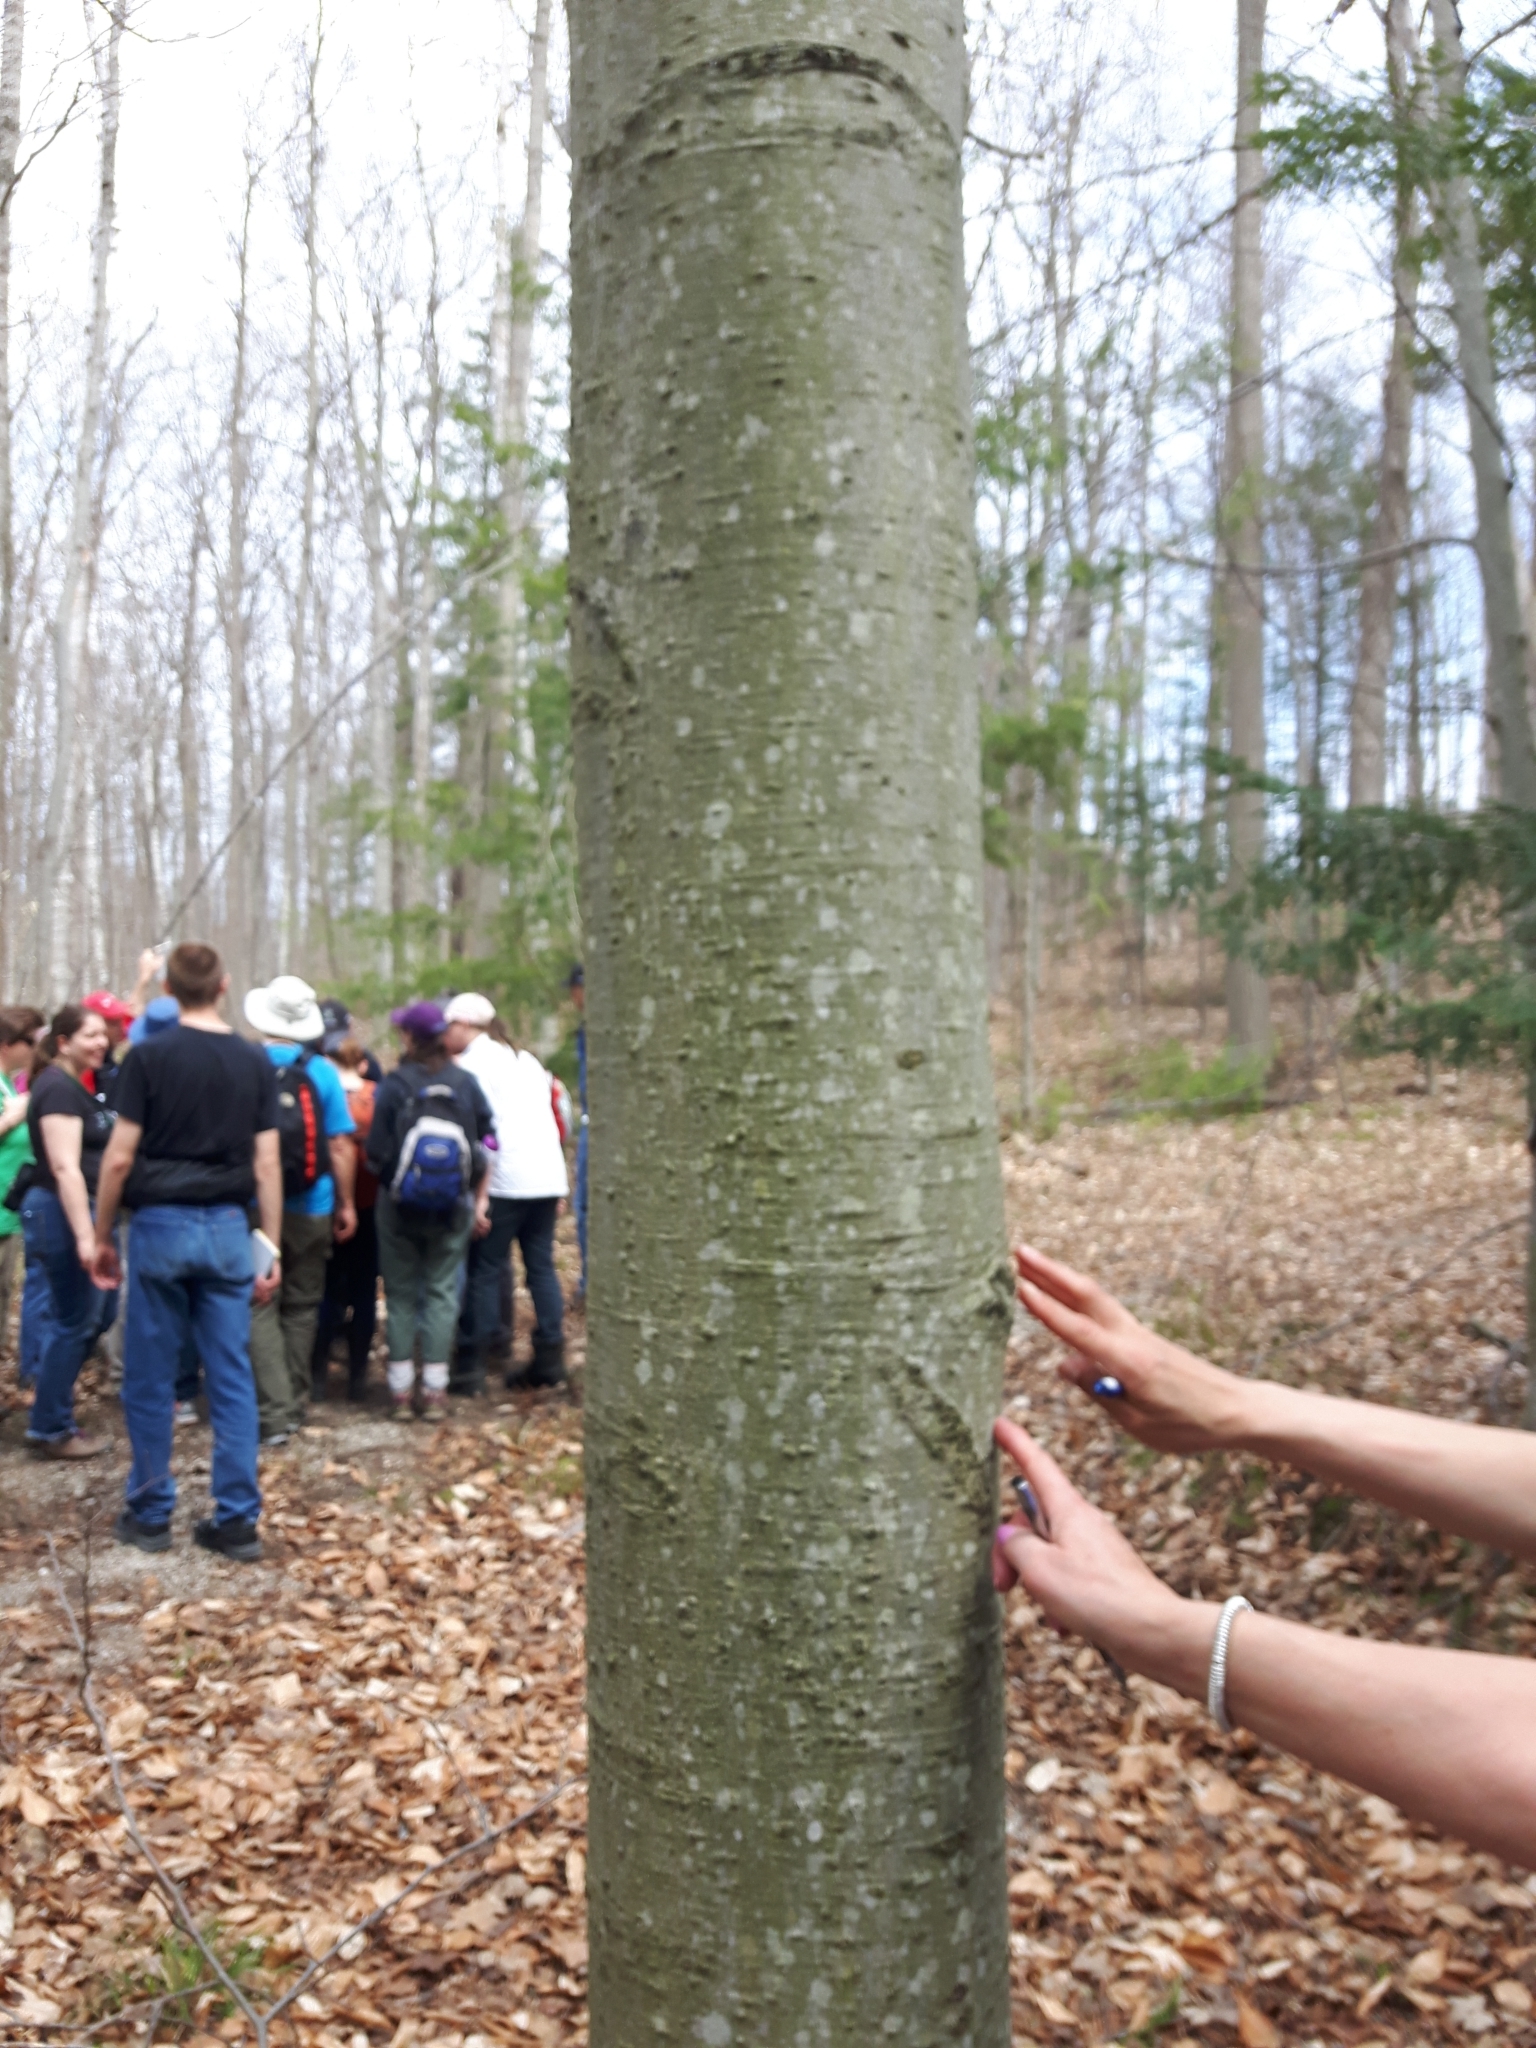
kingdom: Plantae
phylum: Tracheophyta
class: Magnoliopsida
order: Fagales
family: Fagaceae
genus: Fagus
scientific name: Fagus grandifolia
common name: American beech
